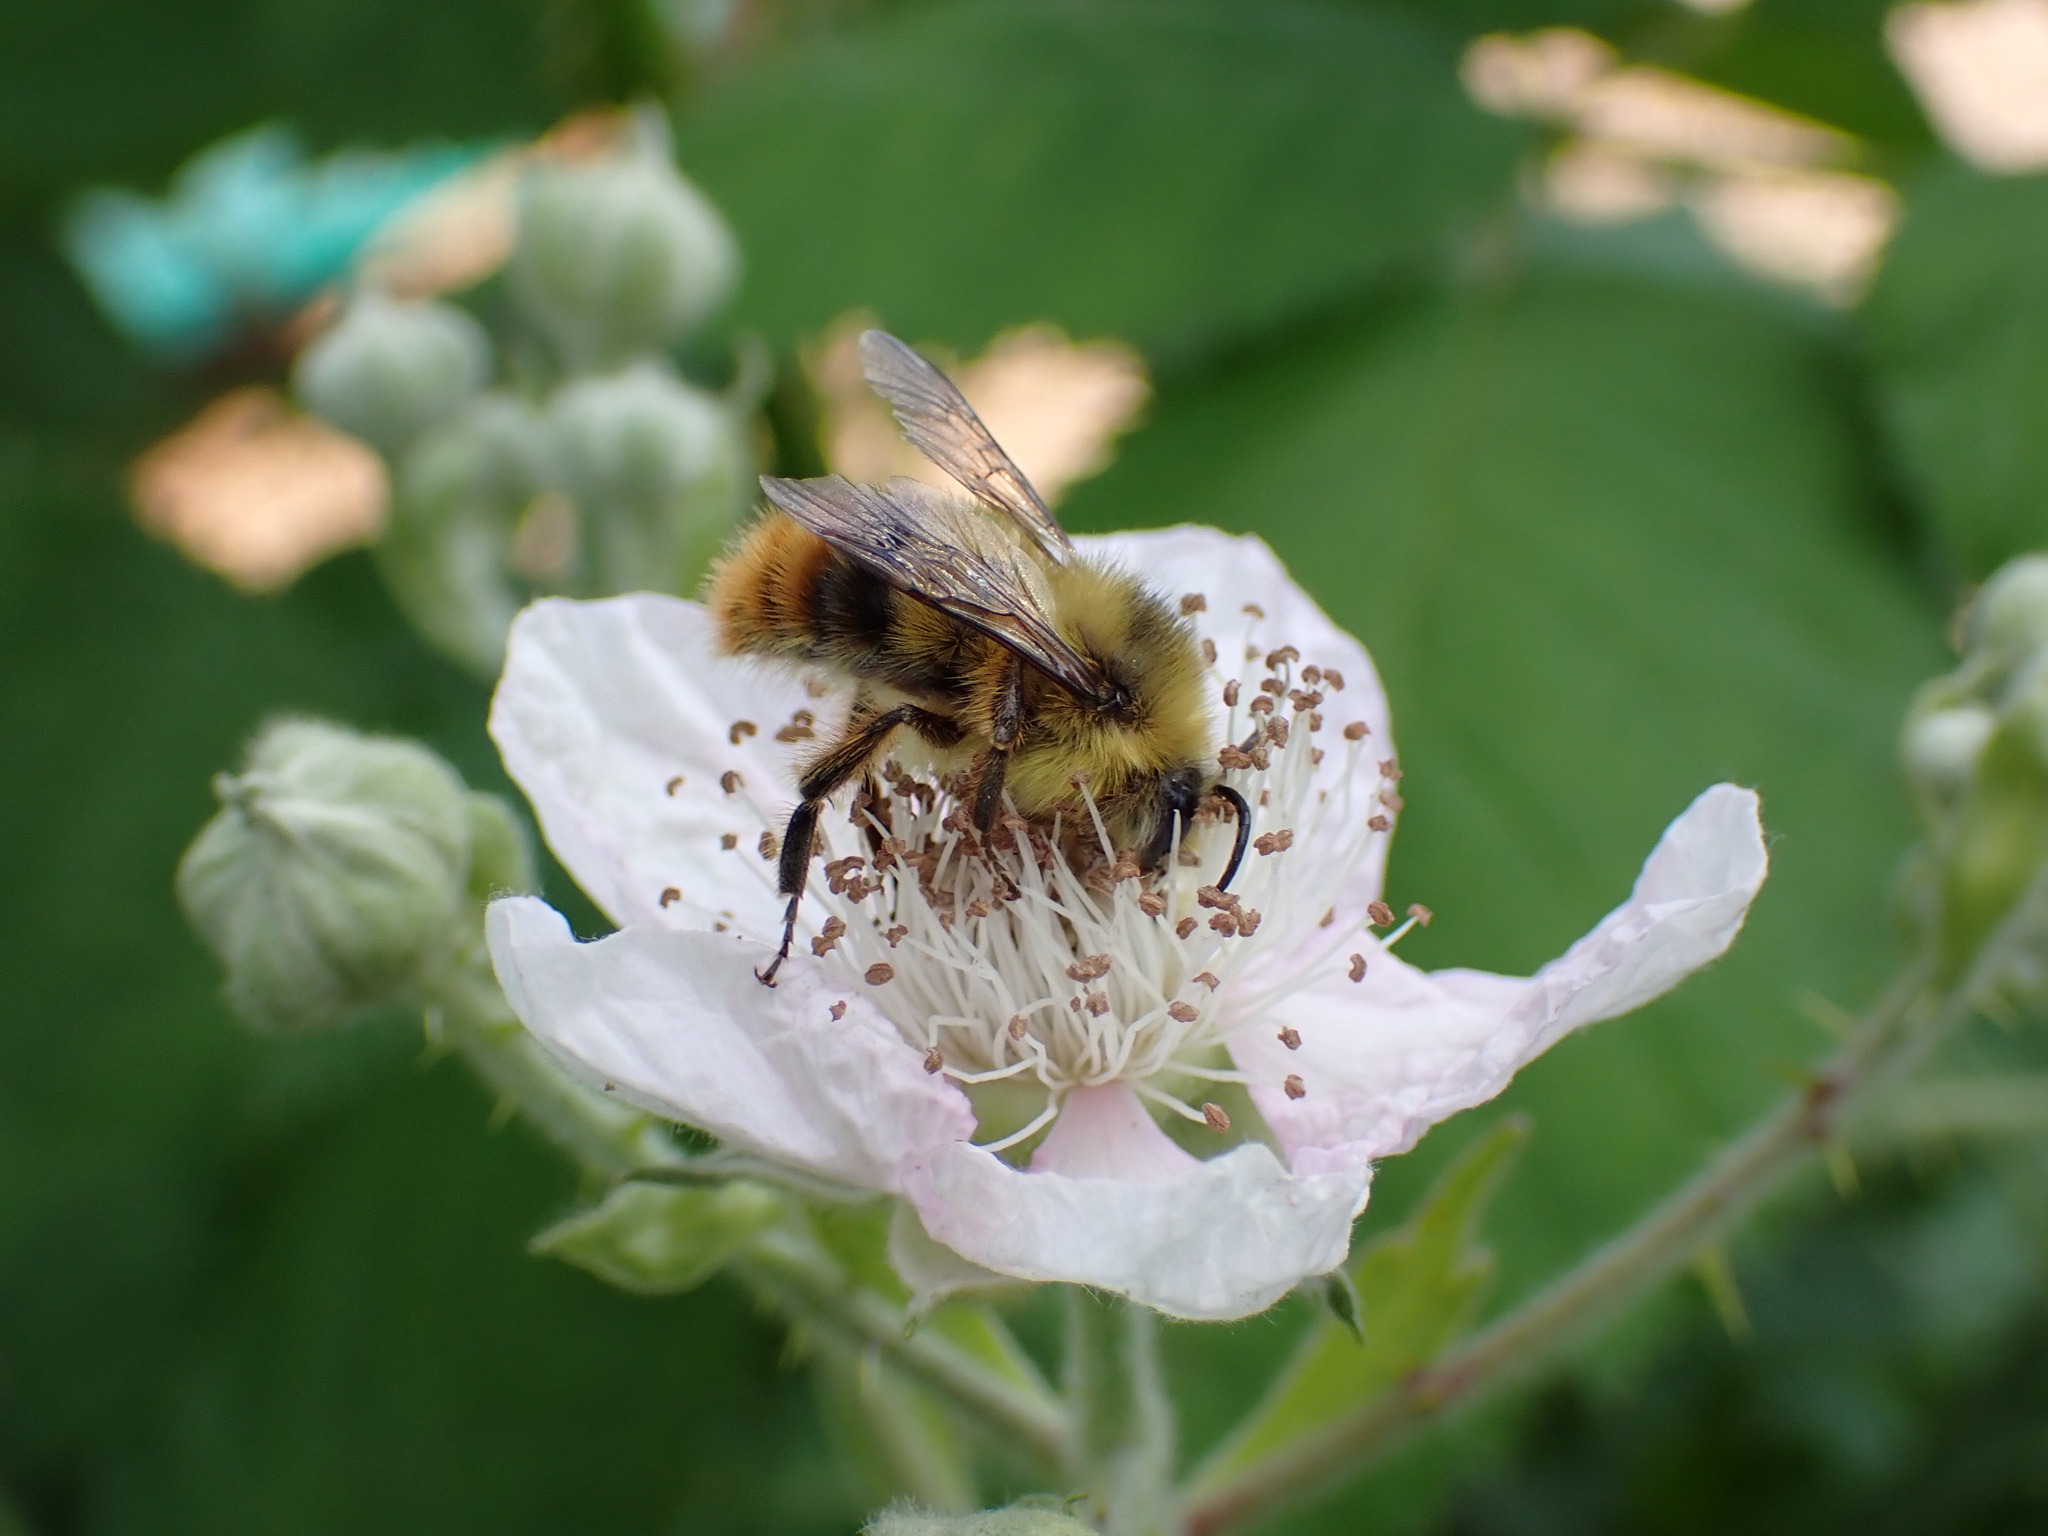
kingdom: Animalia
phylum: Arthropoda
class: Insecta
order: Hymenoptera
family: Apidae
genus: Bombus
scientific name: Bombus mixtus
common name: Fuzzy-horned bumble bee
